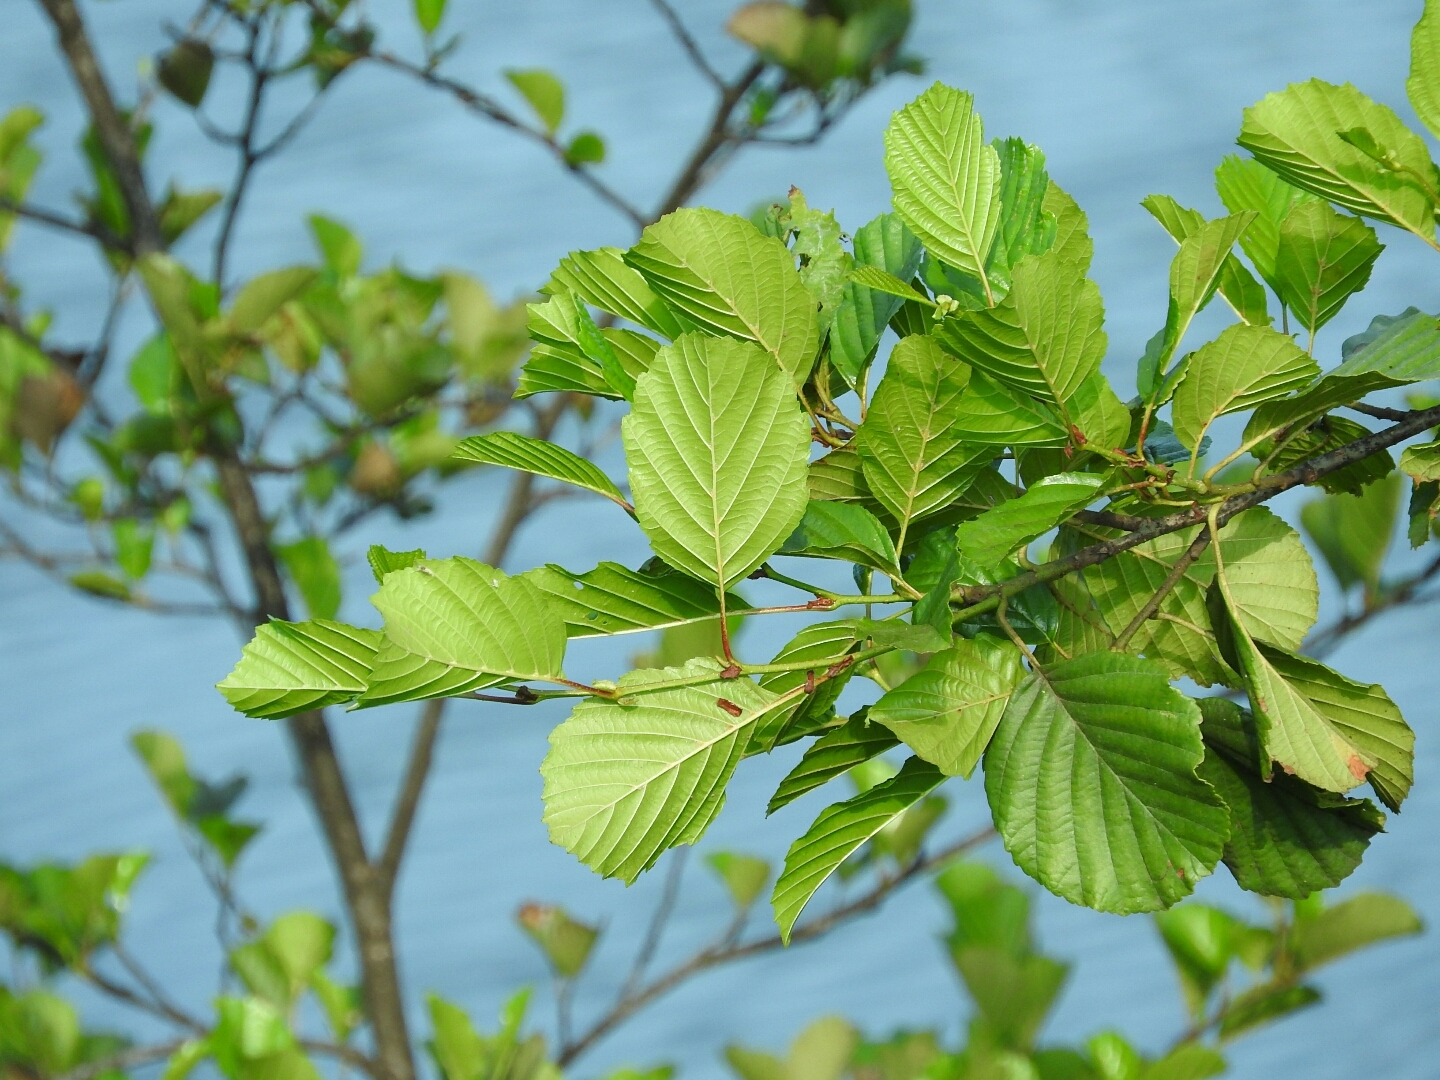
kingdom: Plantae
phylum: Tracheophyta
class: Magnoliopsida
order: Fagales
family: Betulaceae
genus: Alnus
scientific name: Alnus glutinosa
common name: Black alder
